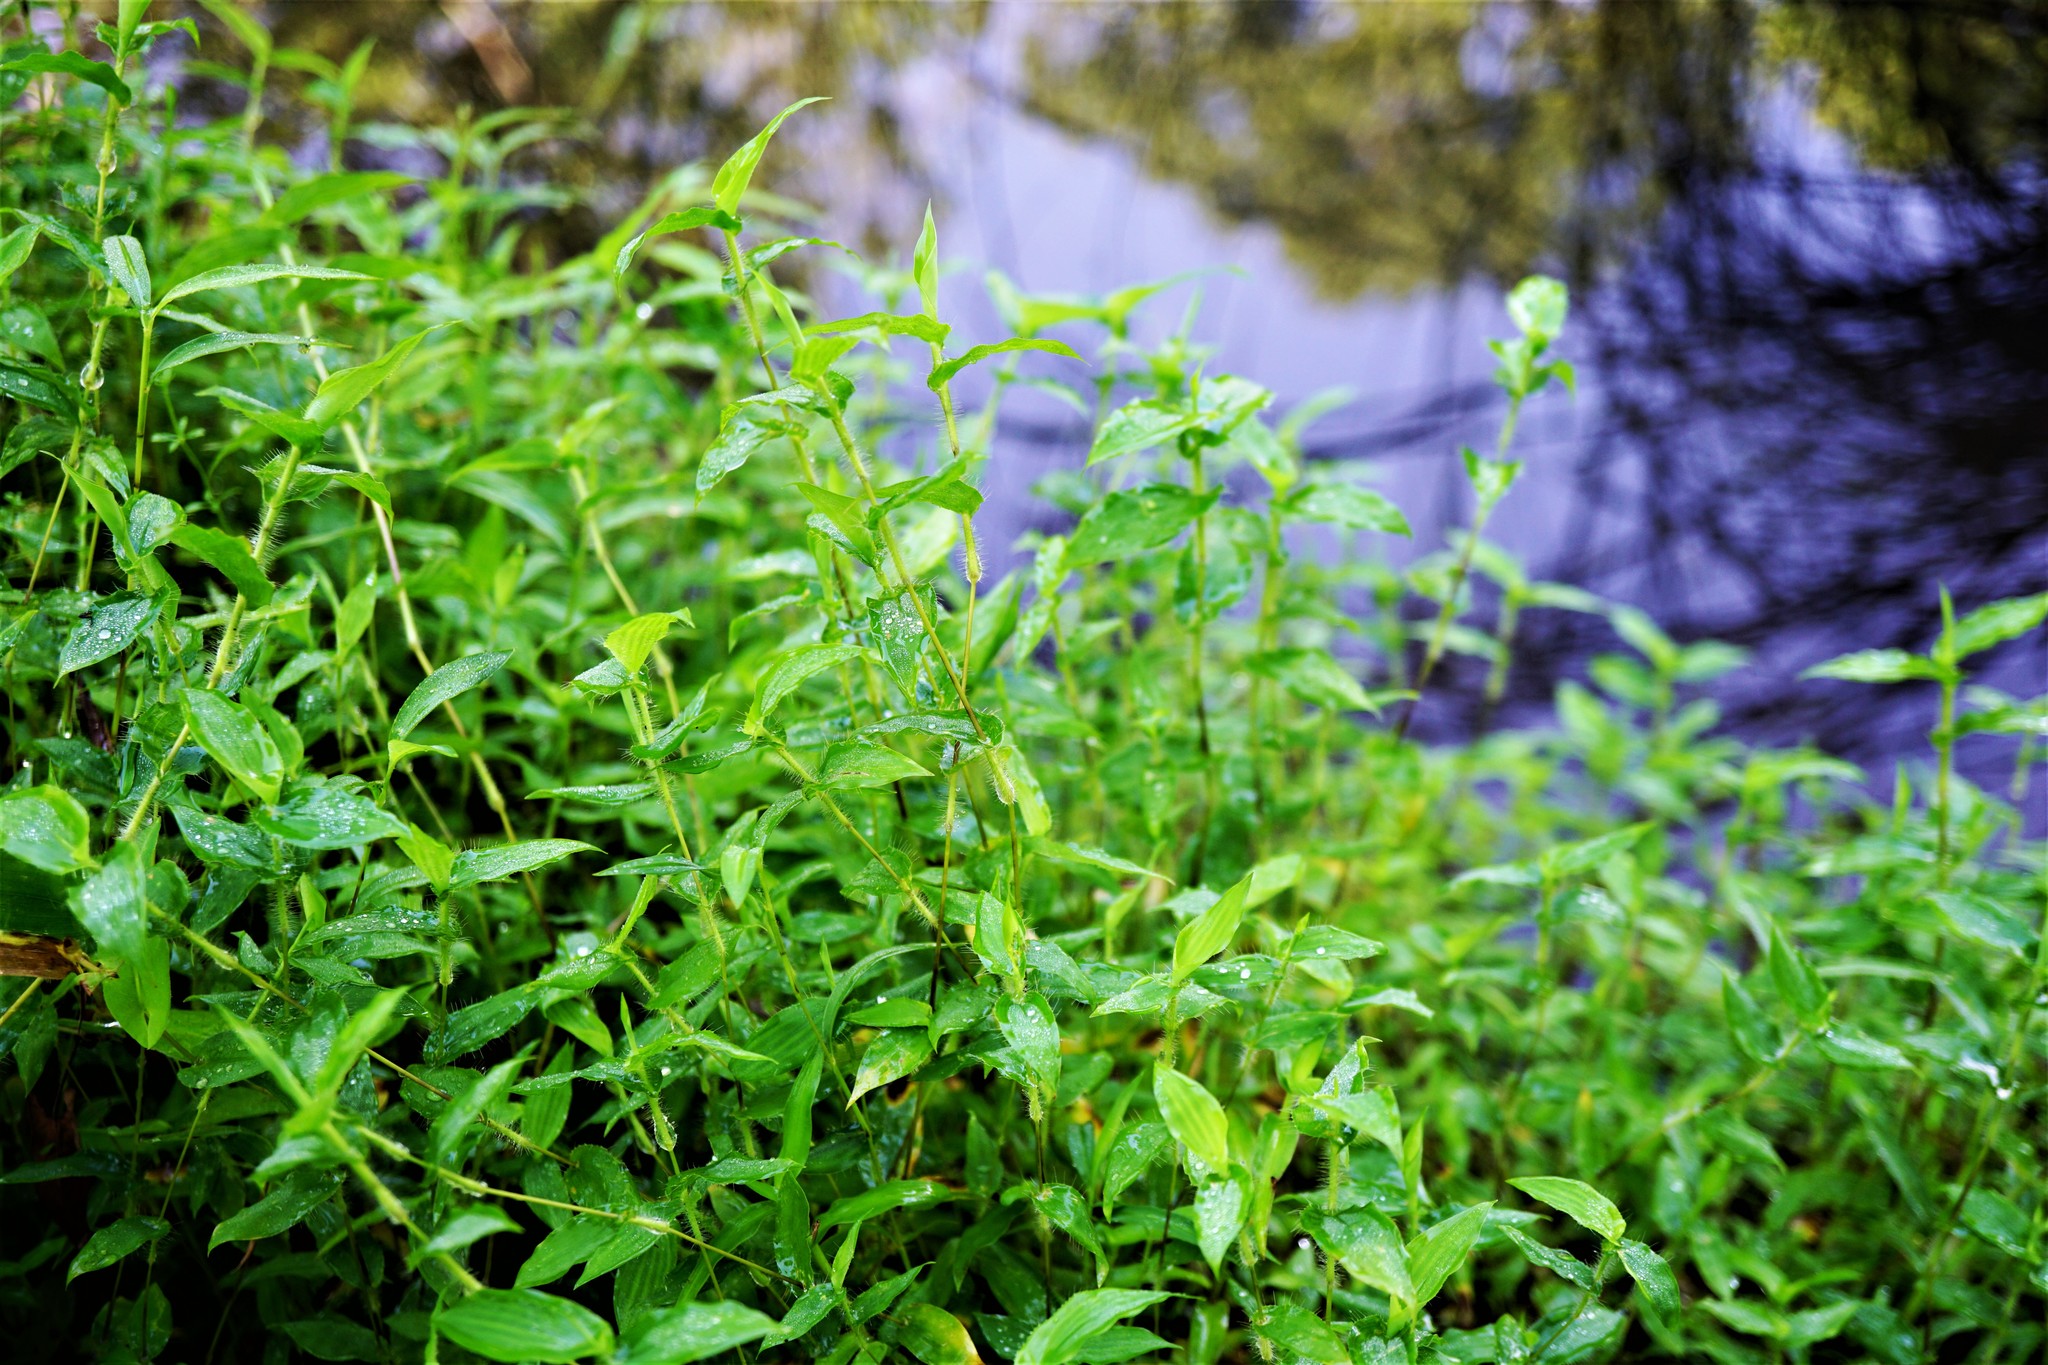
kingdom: Plantae
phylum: Tracheophyta
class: Liliopsida
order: Poales
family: Poaceae
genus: Arthraxon
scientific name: Arthraxon hispidus
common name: Small carpgrass
